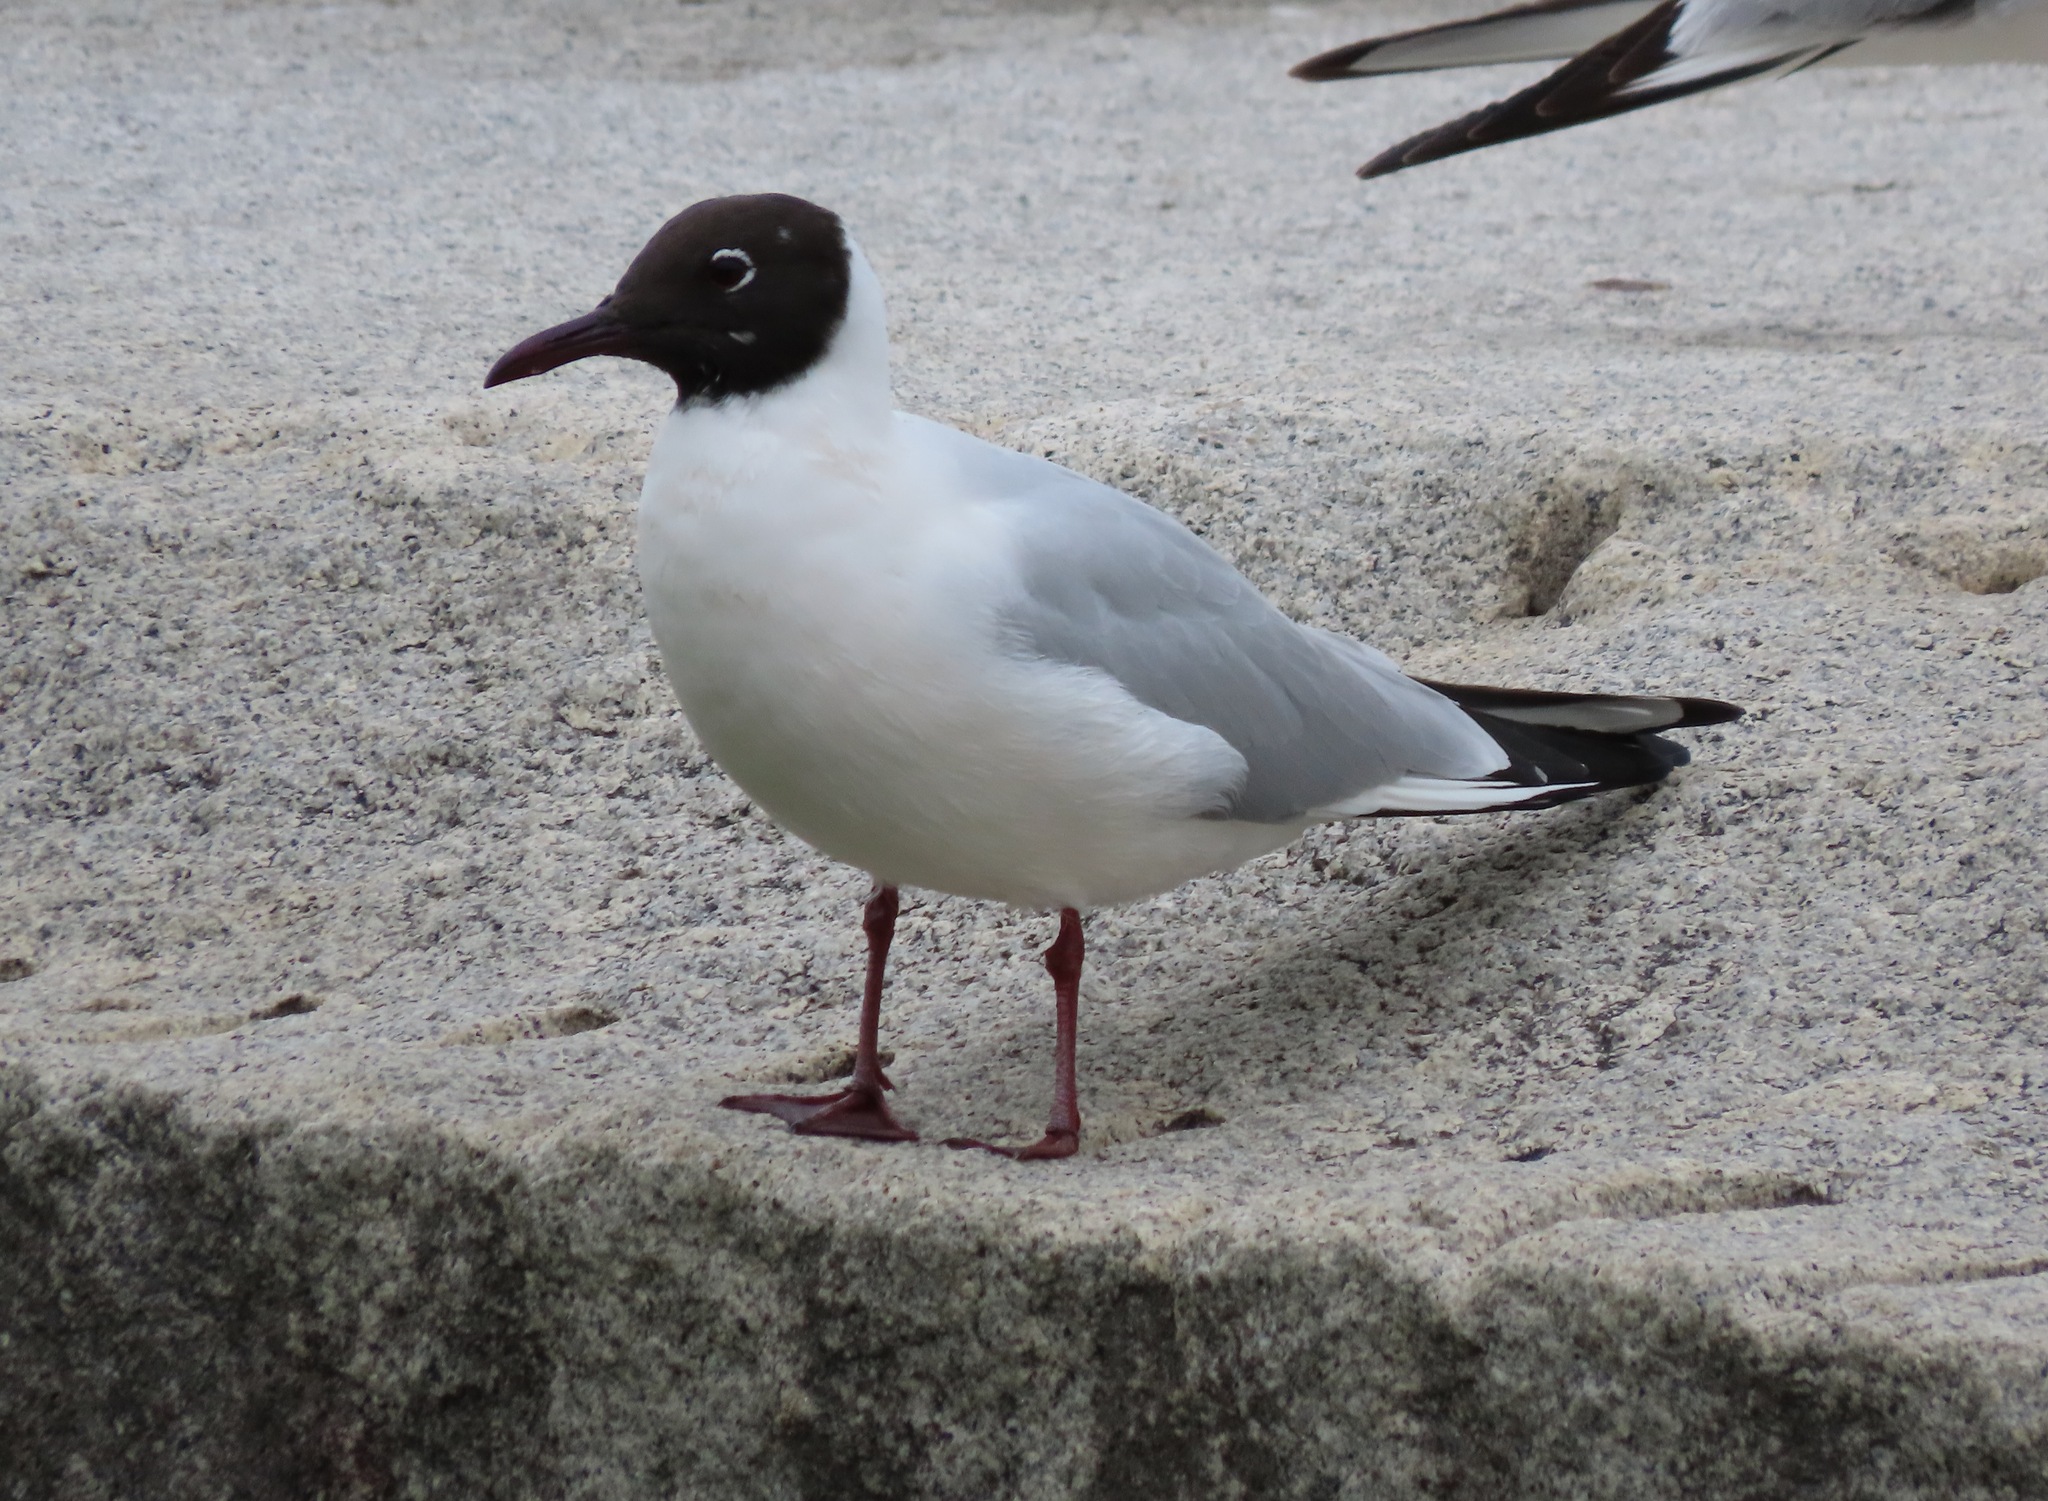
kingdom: Animalia
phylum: Chordata
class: Aves
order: Charadriiformes
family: Laridae
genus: Chroicocephalus
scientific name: Chroicocephalus ridibundus
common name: Black-headed gull
